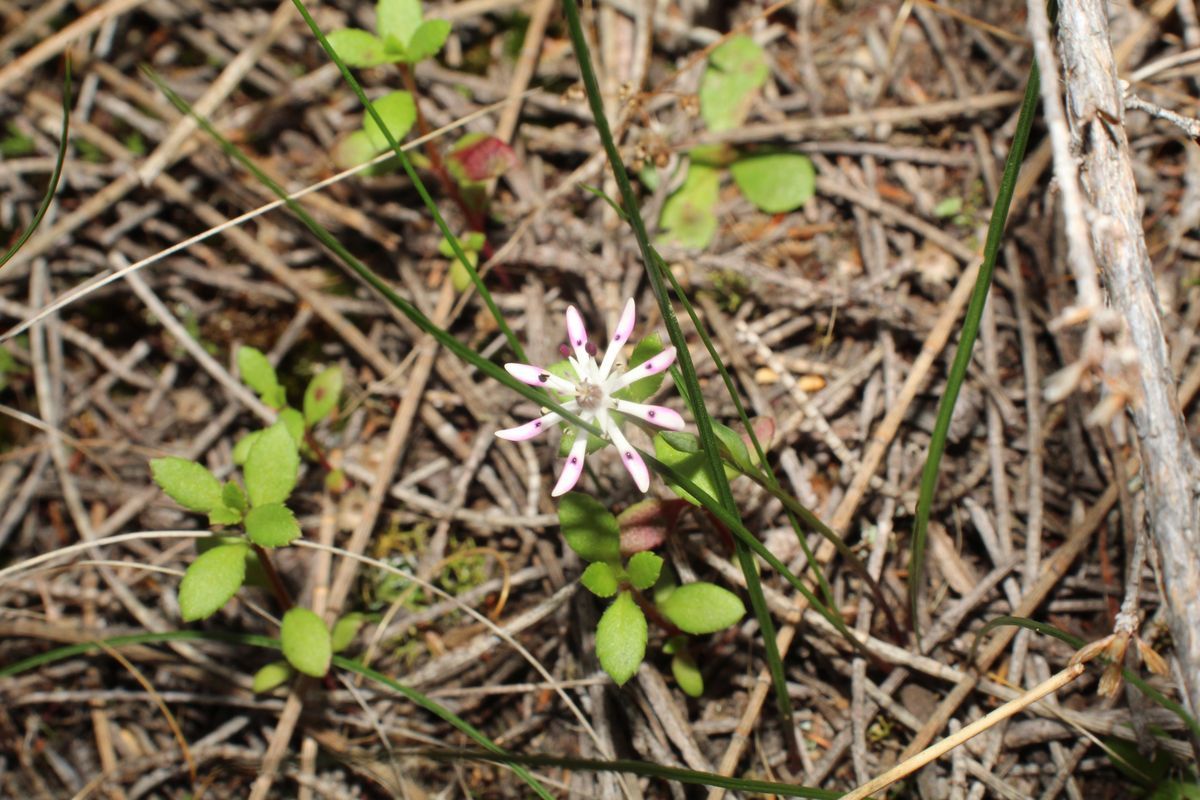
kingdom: Plantae
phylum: Tracheophyta
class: Liliopsida
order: Liliales
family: Colchicaceae
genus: Wurmbea
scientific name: Wurmbea tenella
